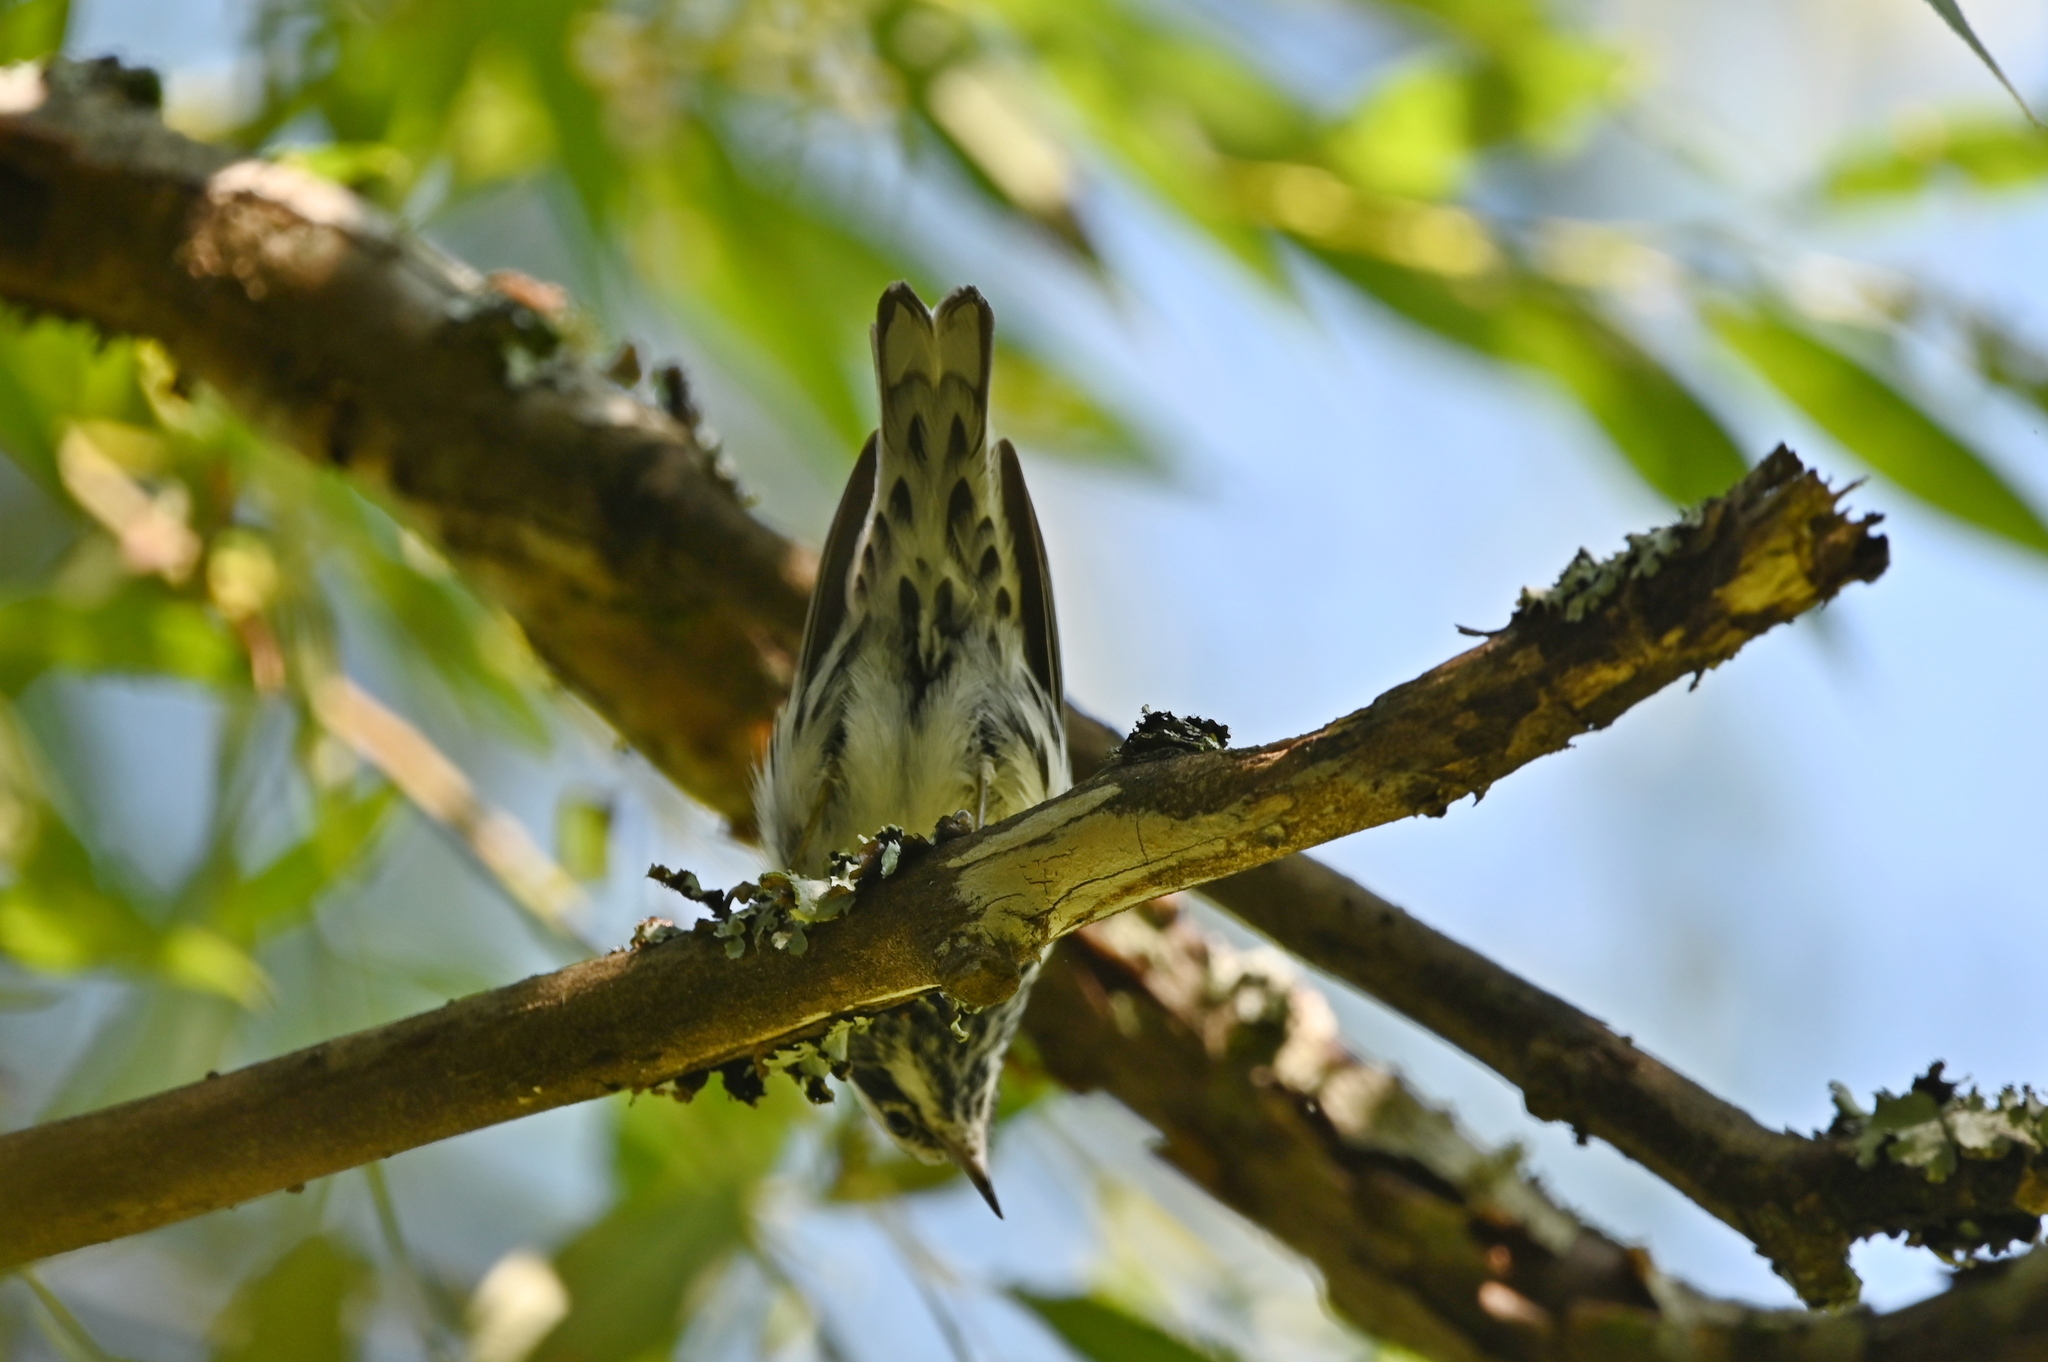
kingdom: Animalia
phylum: Chordata
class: Aves
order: Passeriformes
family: Parulidae
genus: Mniotilta
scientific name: Mniotilta varia
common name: Black-and-white warbler
